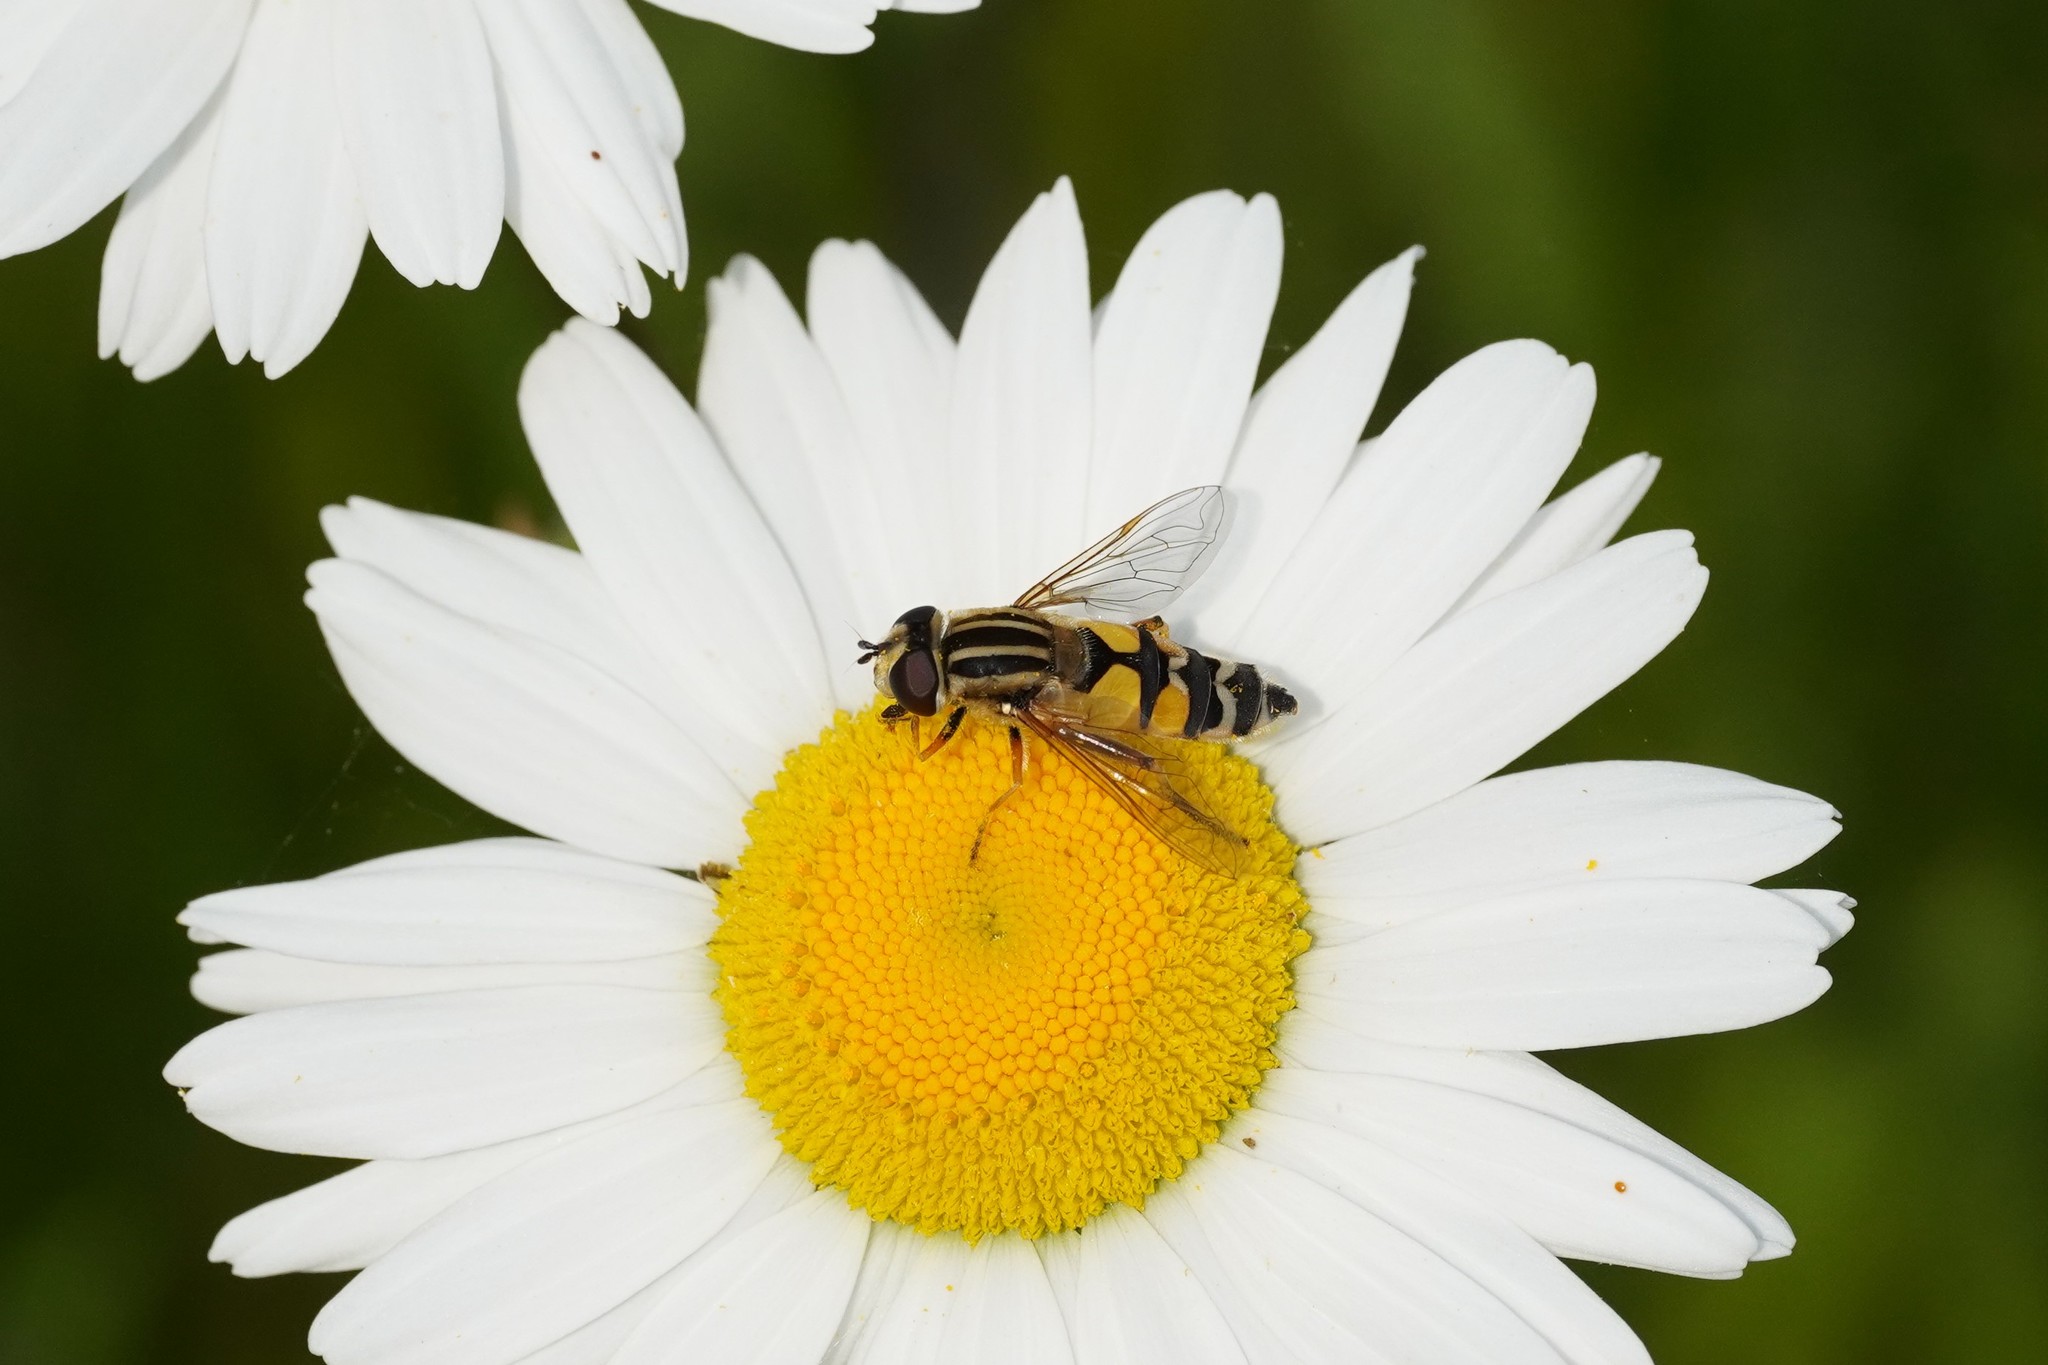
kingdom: Animalia
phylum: Arthropoda
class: Insecta
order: Diptera
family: Syrphidae
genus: Helophilus
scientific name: Helophilus trivittatus
